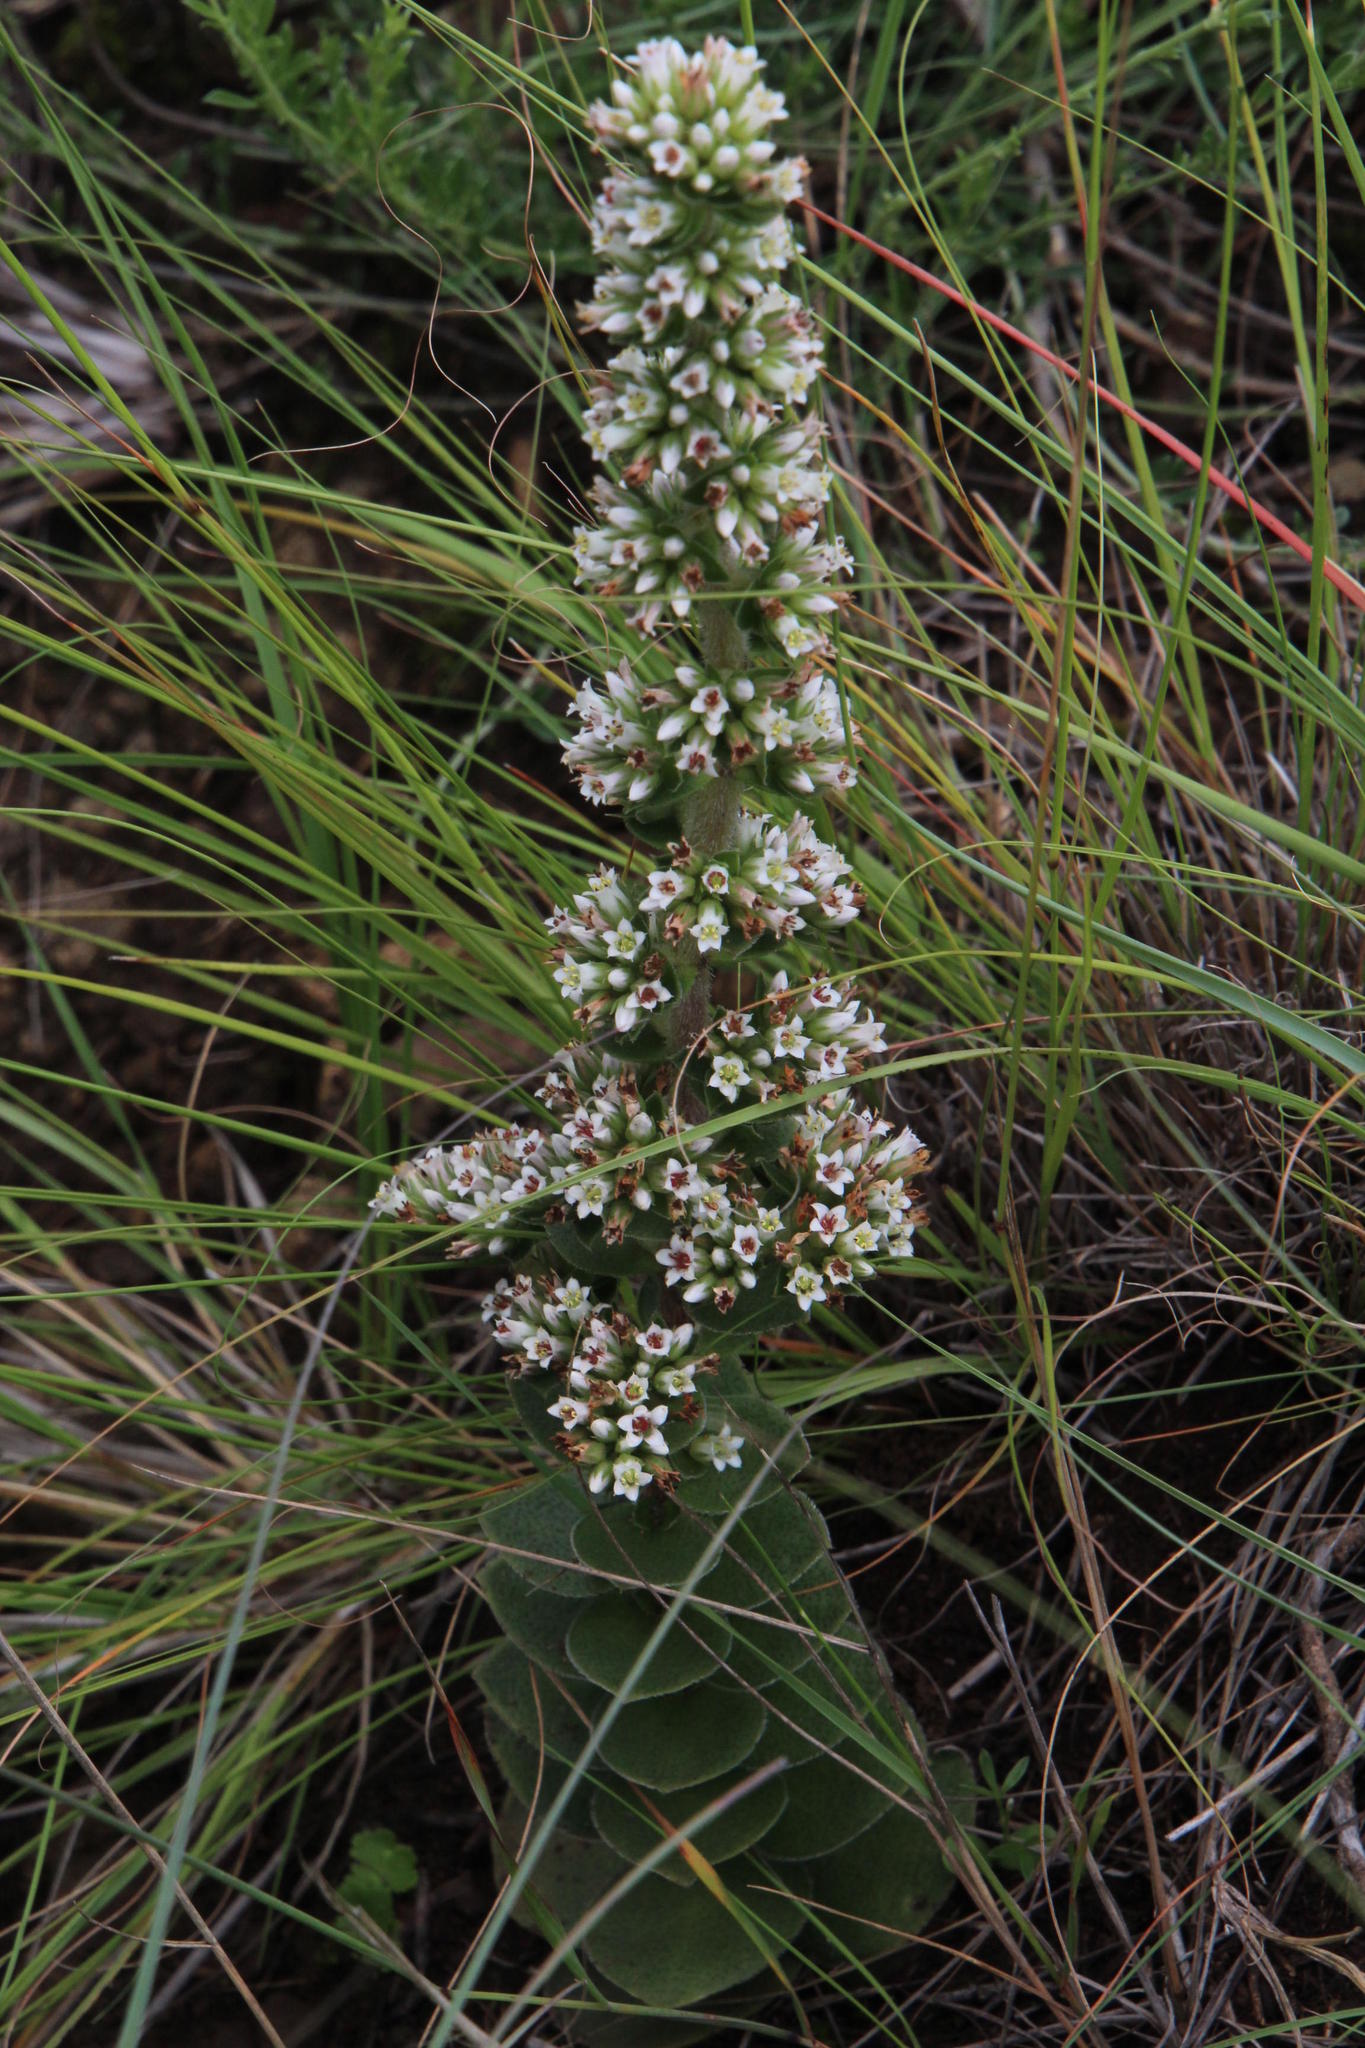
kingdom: Plantae
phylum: Tracheophyta
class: Magnoliopsida
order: Saxifragales
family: Crassulaceae
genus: Crassula
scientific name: Crassula obovata
